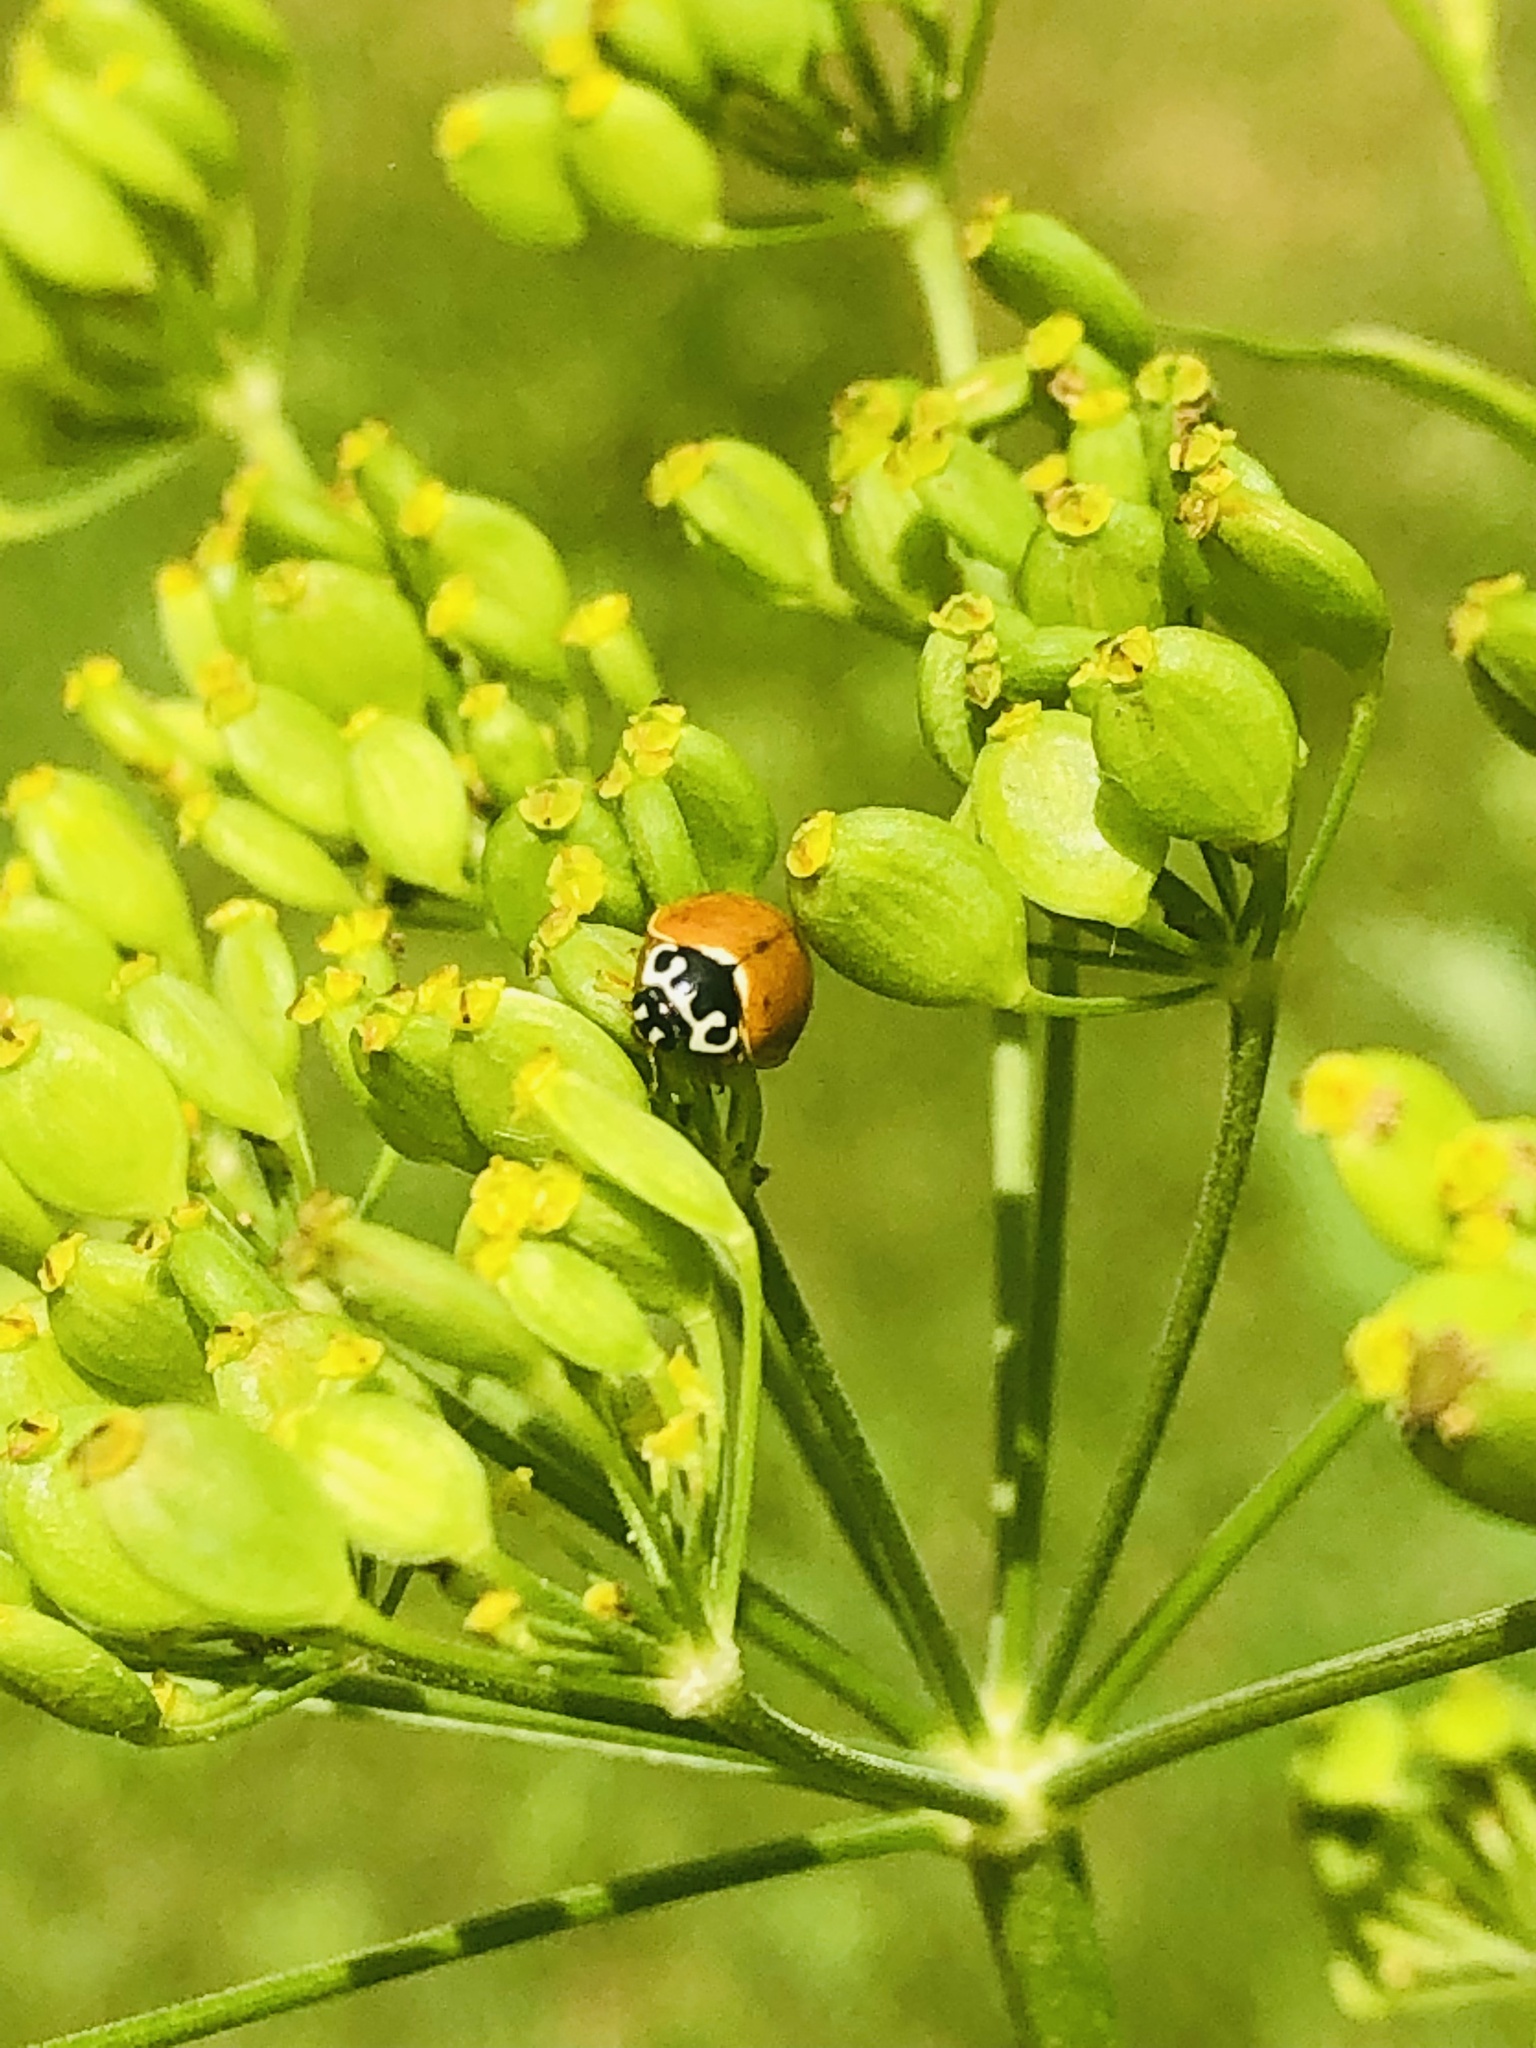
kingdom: Animalia
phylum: Arthropoda
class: Insecta
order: Coleoptera
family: Coccinellidae
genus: Cycloneda
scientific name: Cycloneda munda
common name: Polished lady beetle
